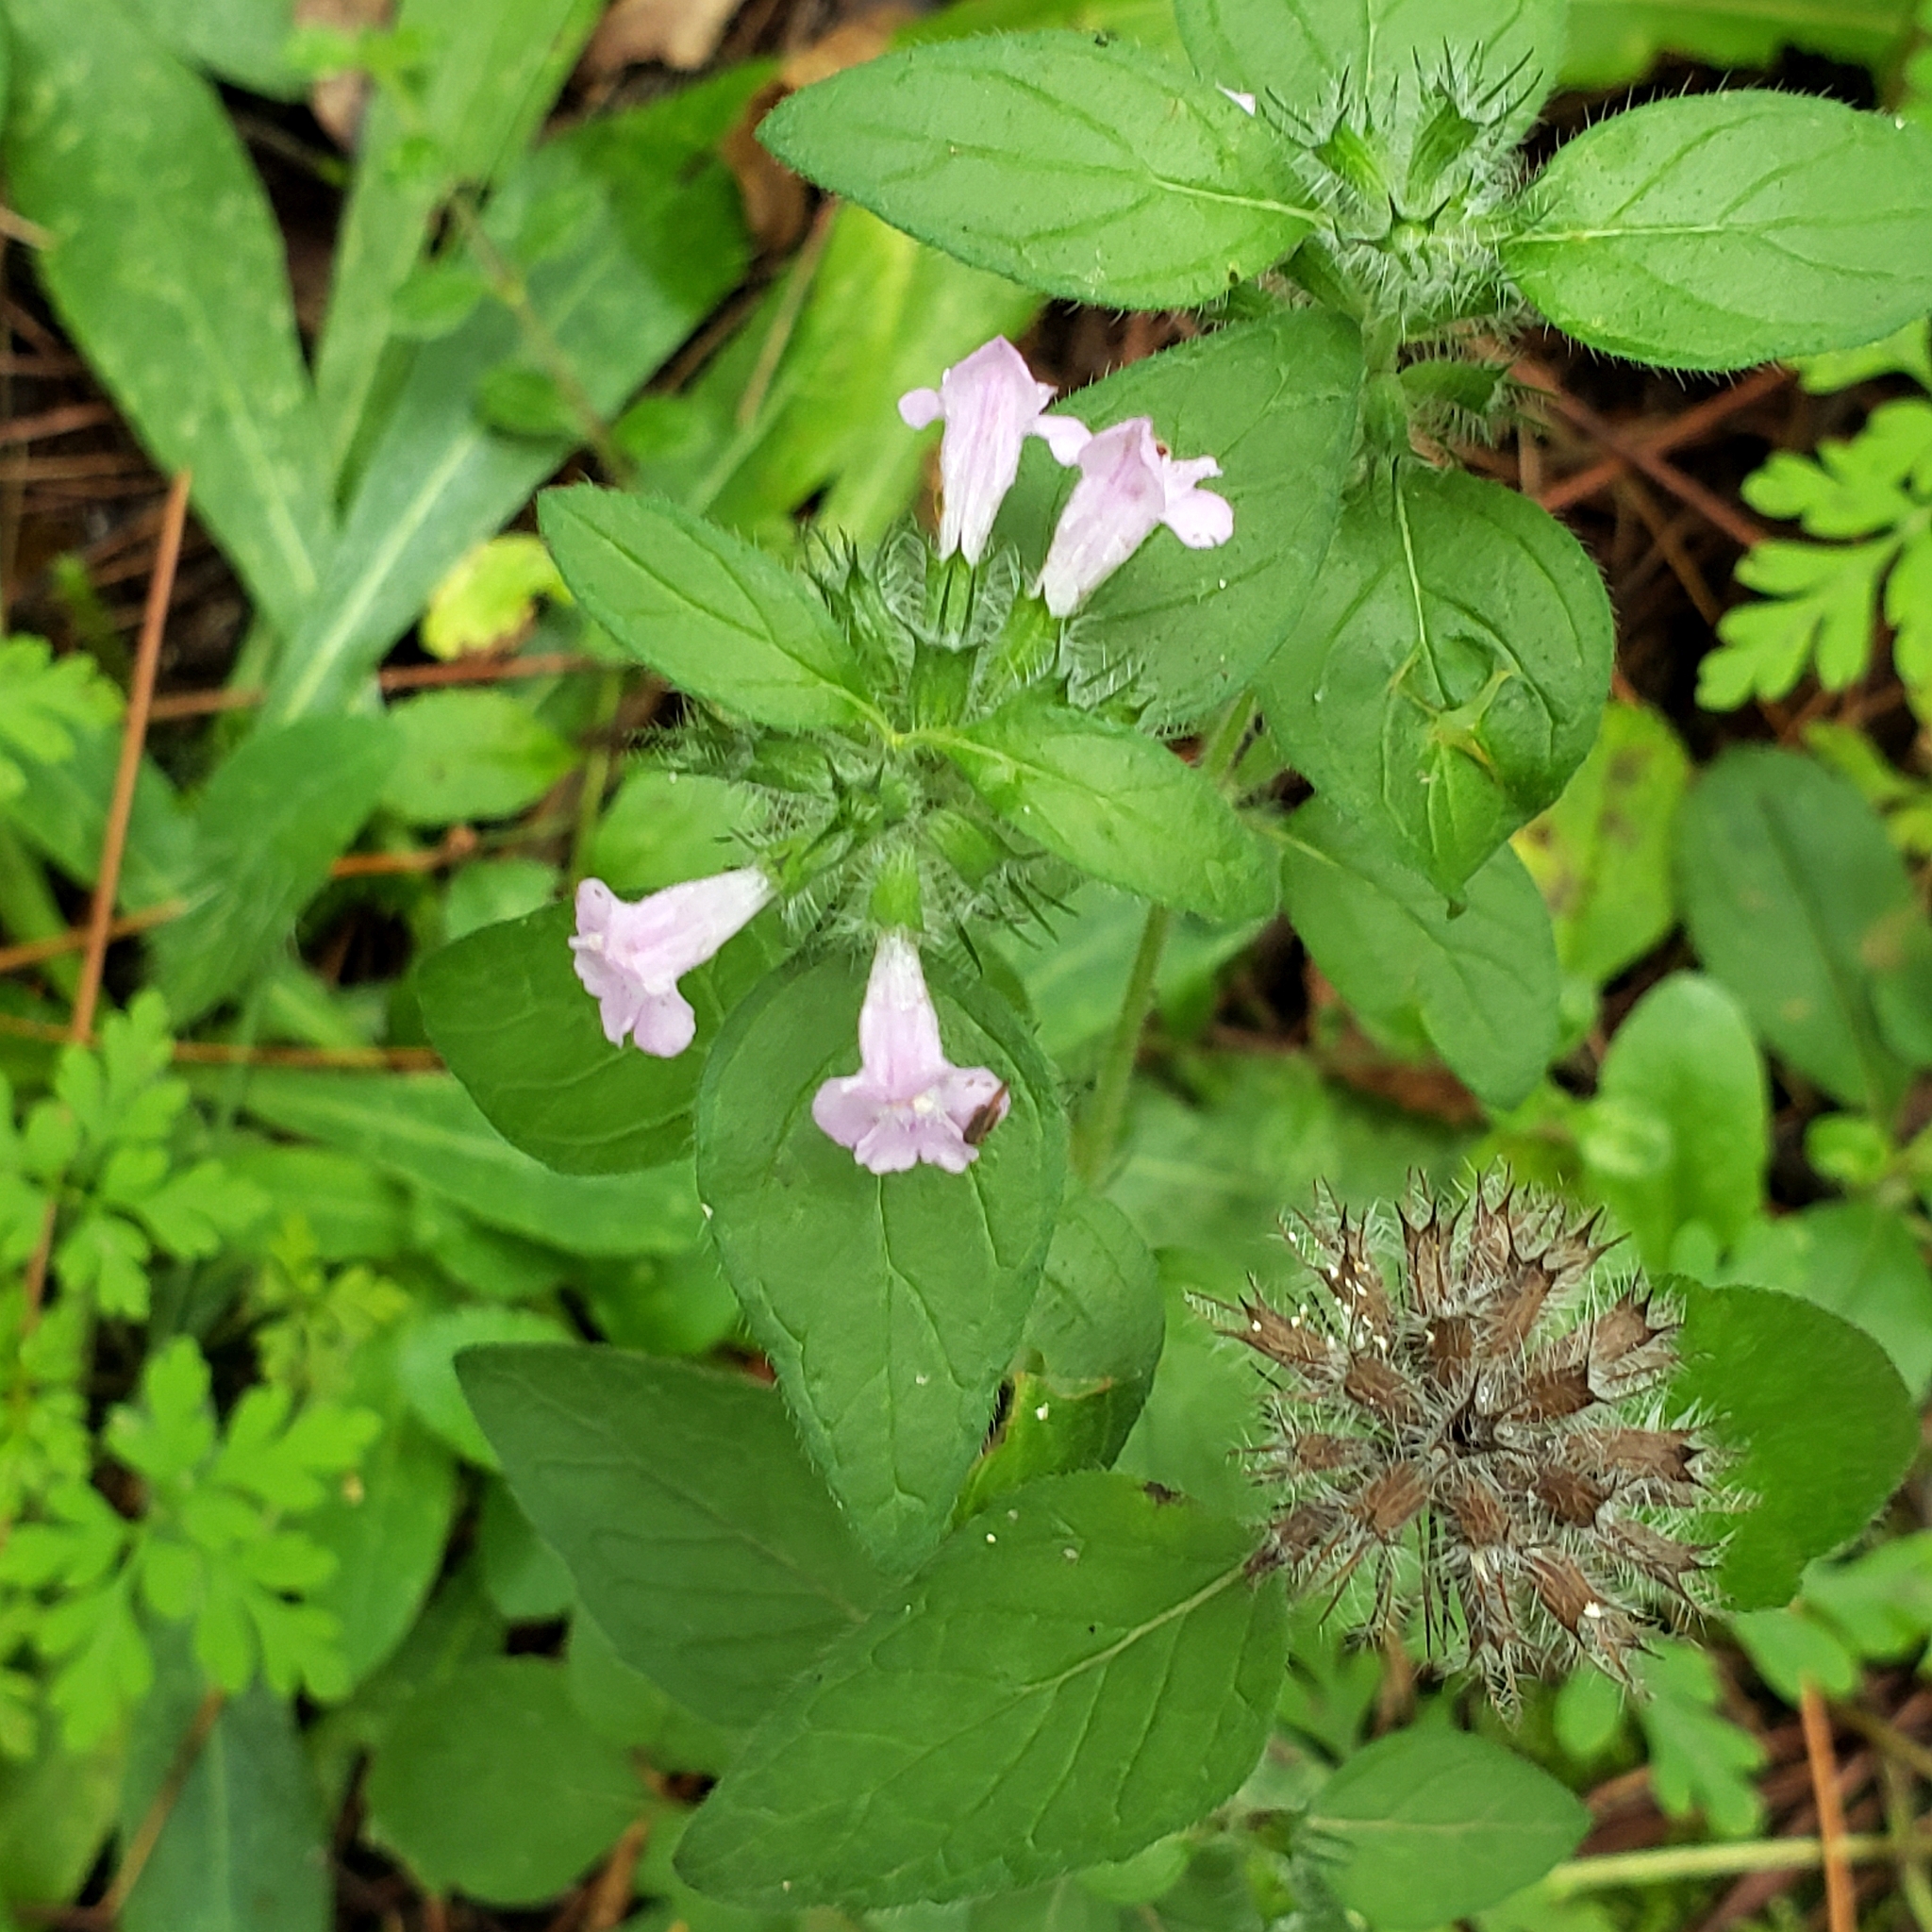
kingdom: Plantae
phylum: Tracheophyta
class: Magnoliopsida
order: Lamiales
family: Lamiaceae
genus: Clinopodium
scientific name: Clinopodium vulgare
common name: Wild basil
